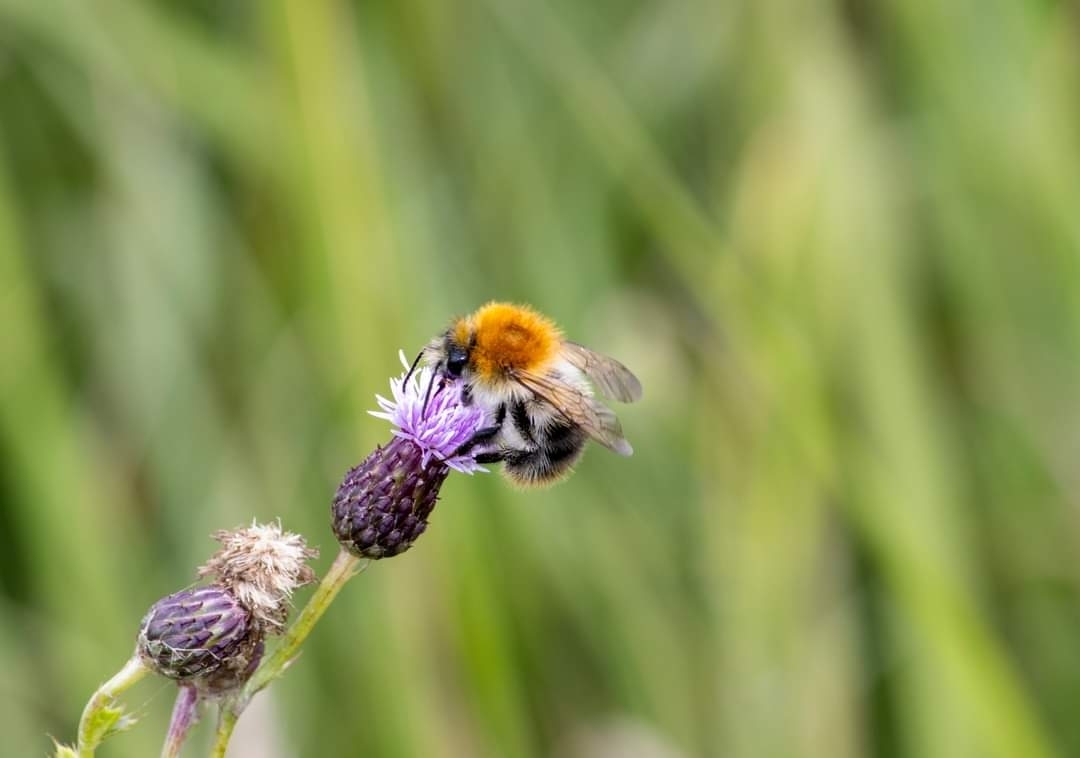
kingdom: Animalia
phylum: Arthropoda
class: Insecta
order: Hymenoptera
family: Apidae
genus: Bombus
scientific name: Bombus pascuorum
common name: Common carder bee
